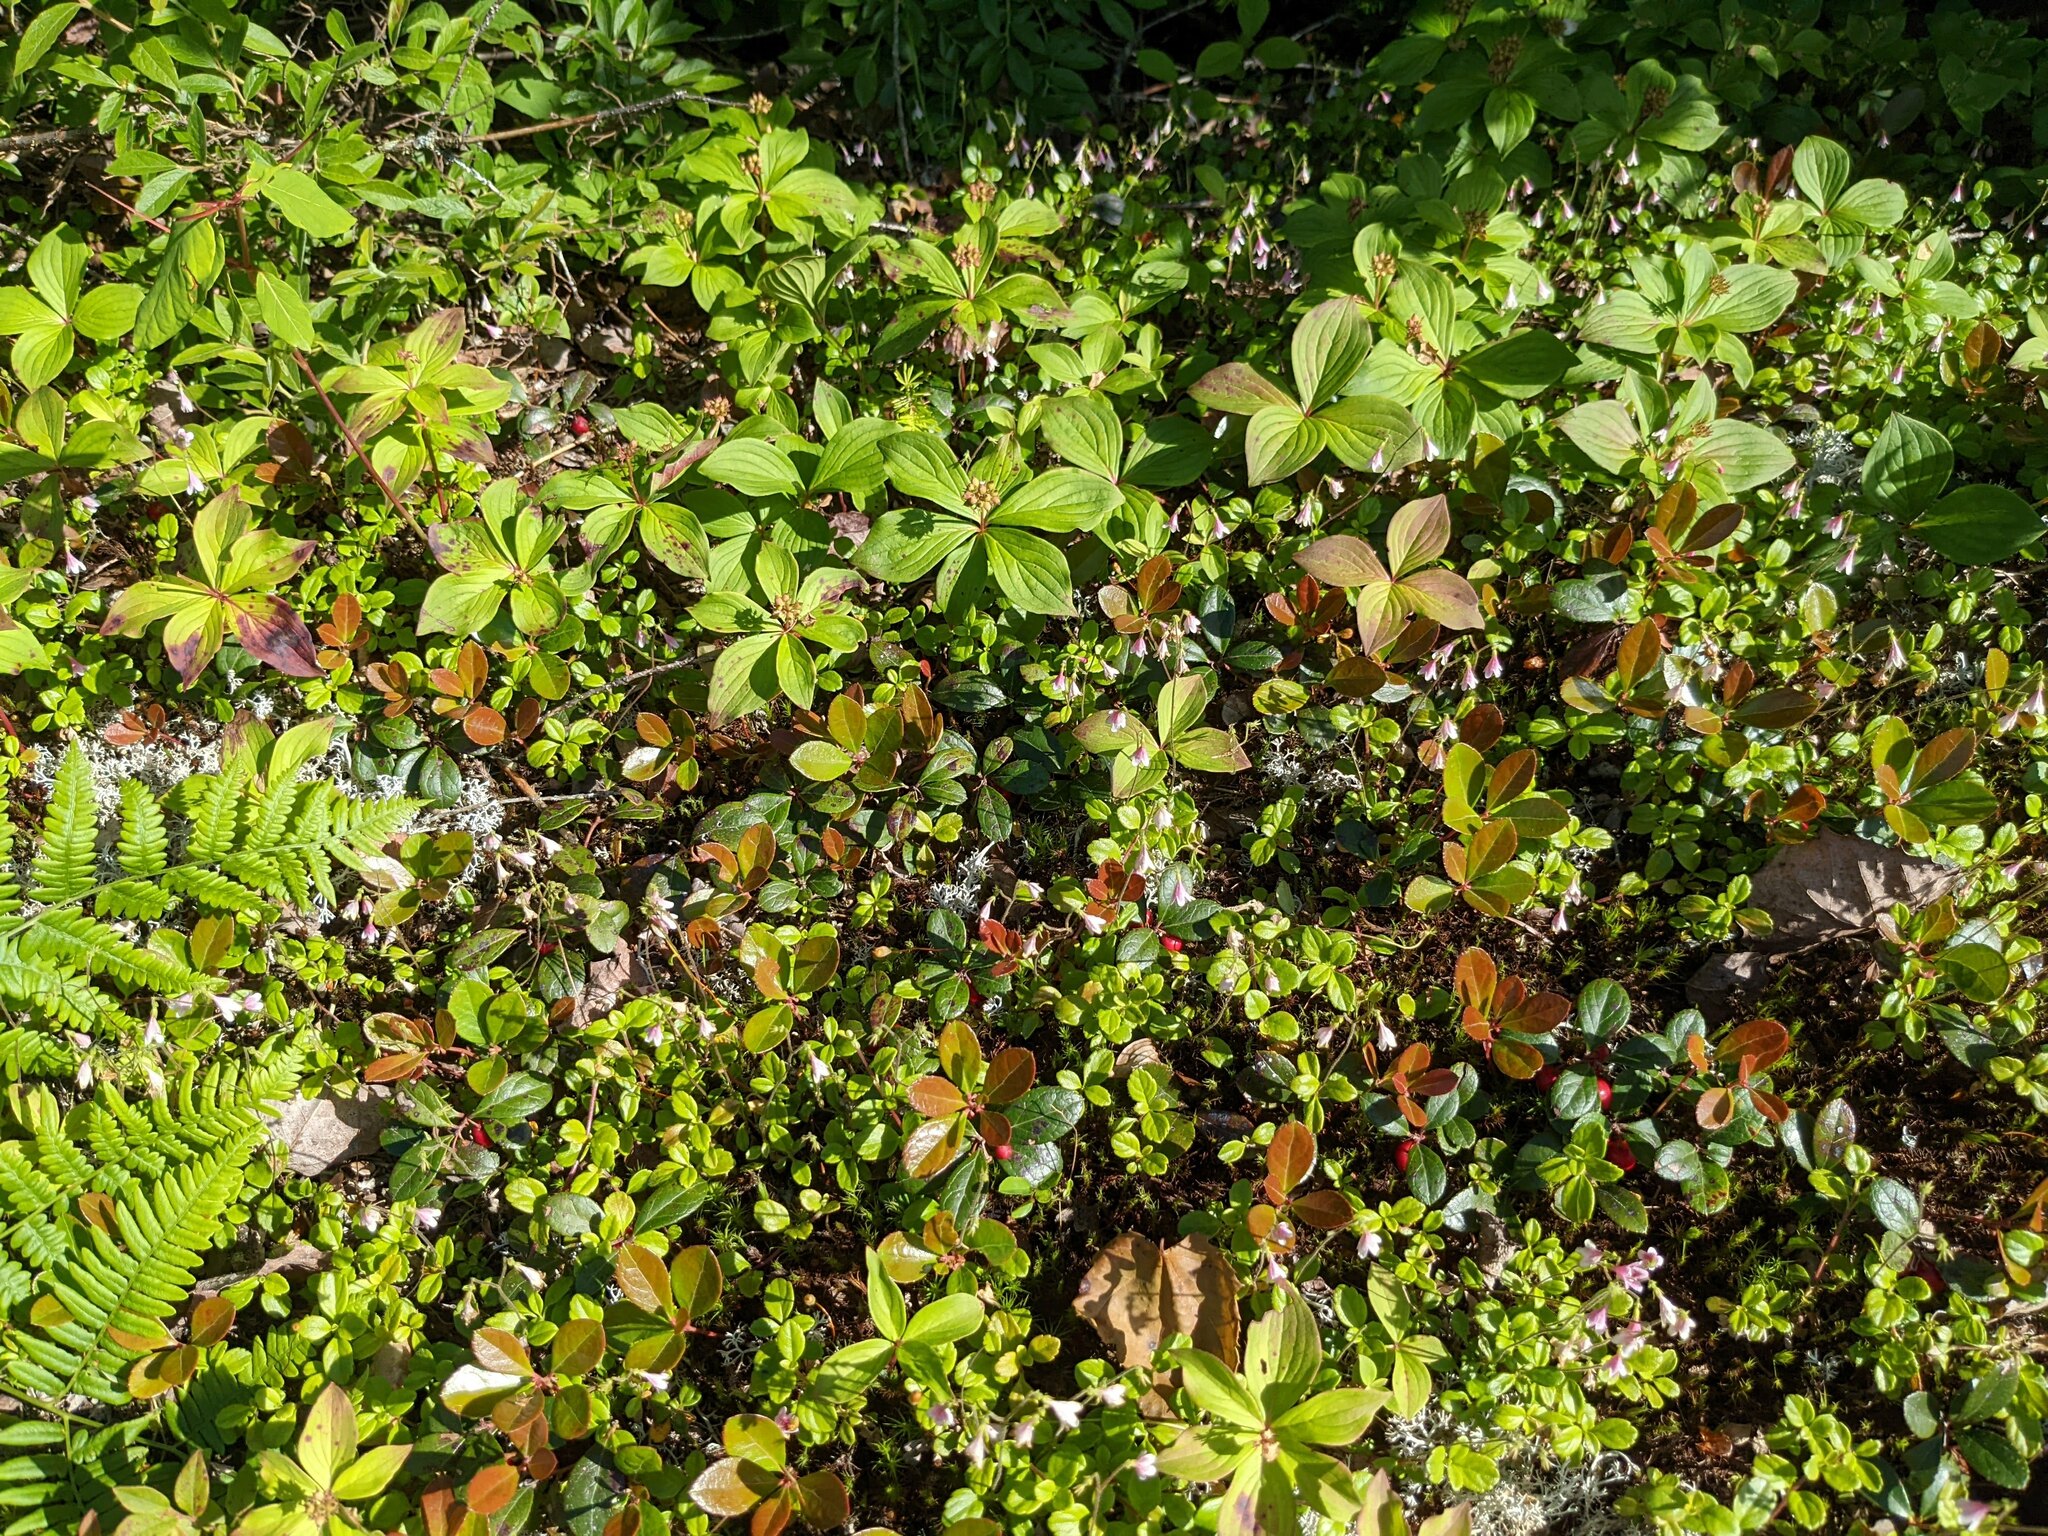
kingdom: Plantae
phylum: Tracheophyta
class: Magnoliopsida
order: Dipsacales
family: Caprifoliaceae
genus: Linnaea
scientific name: Linnaea borealis
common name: Twinflower
